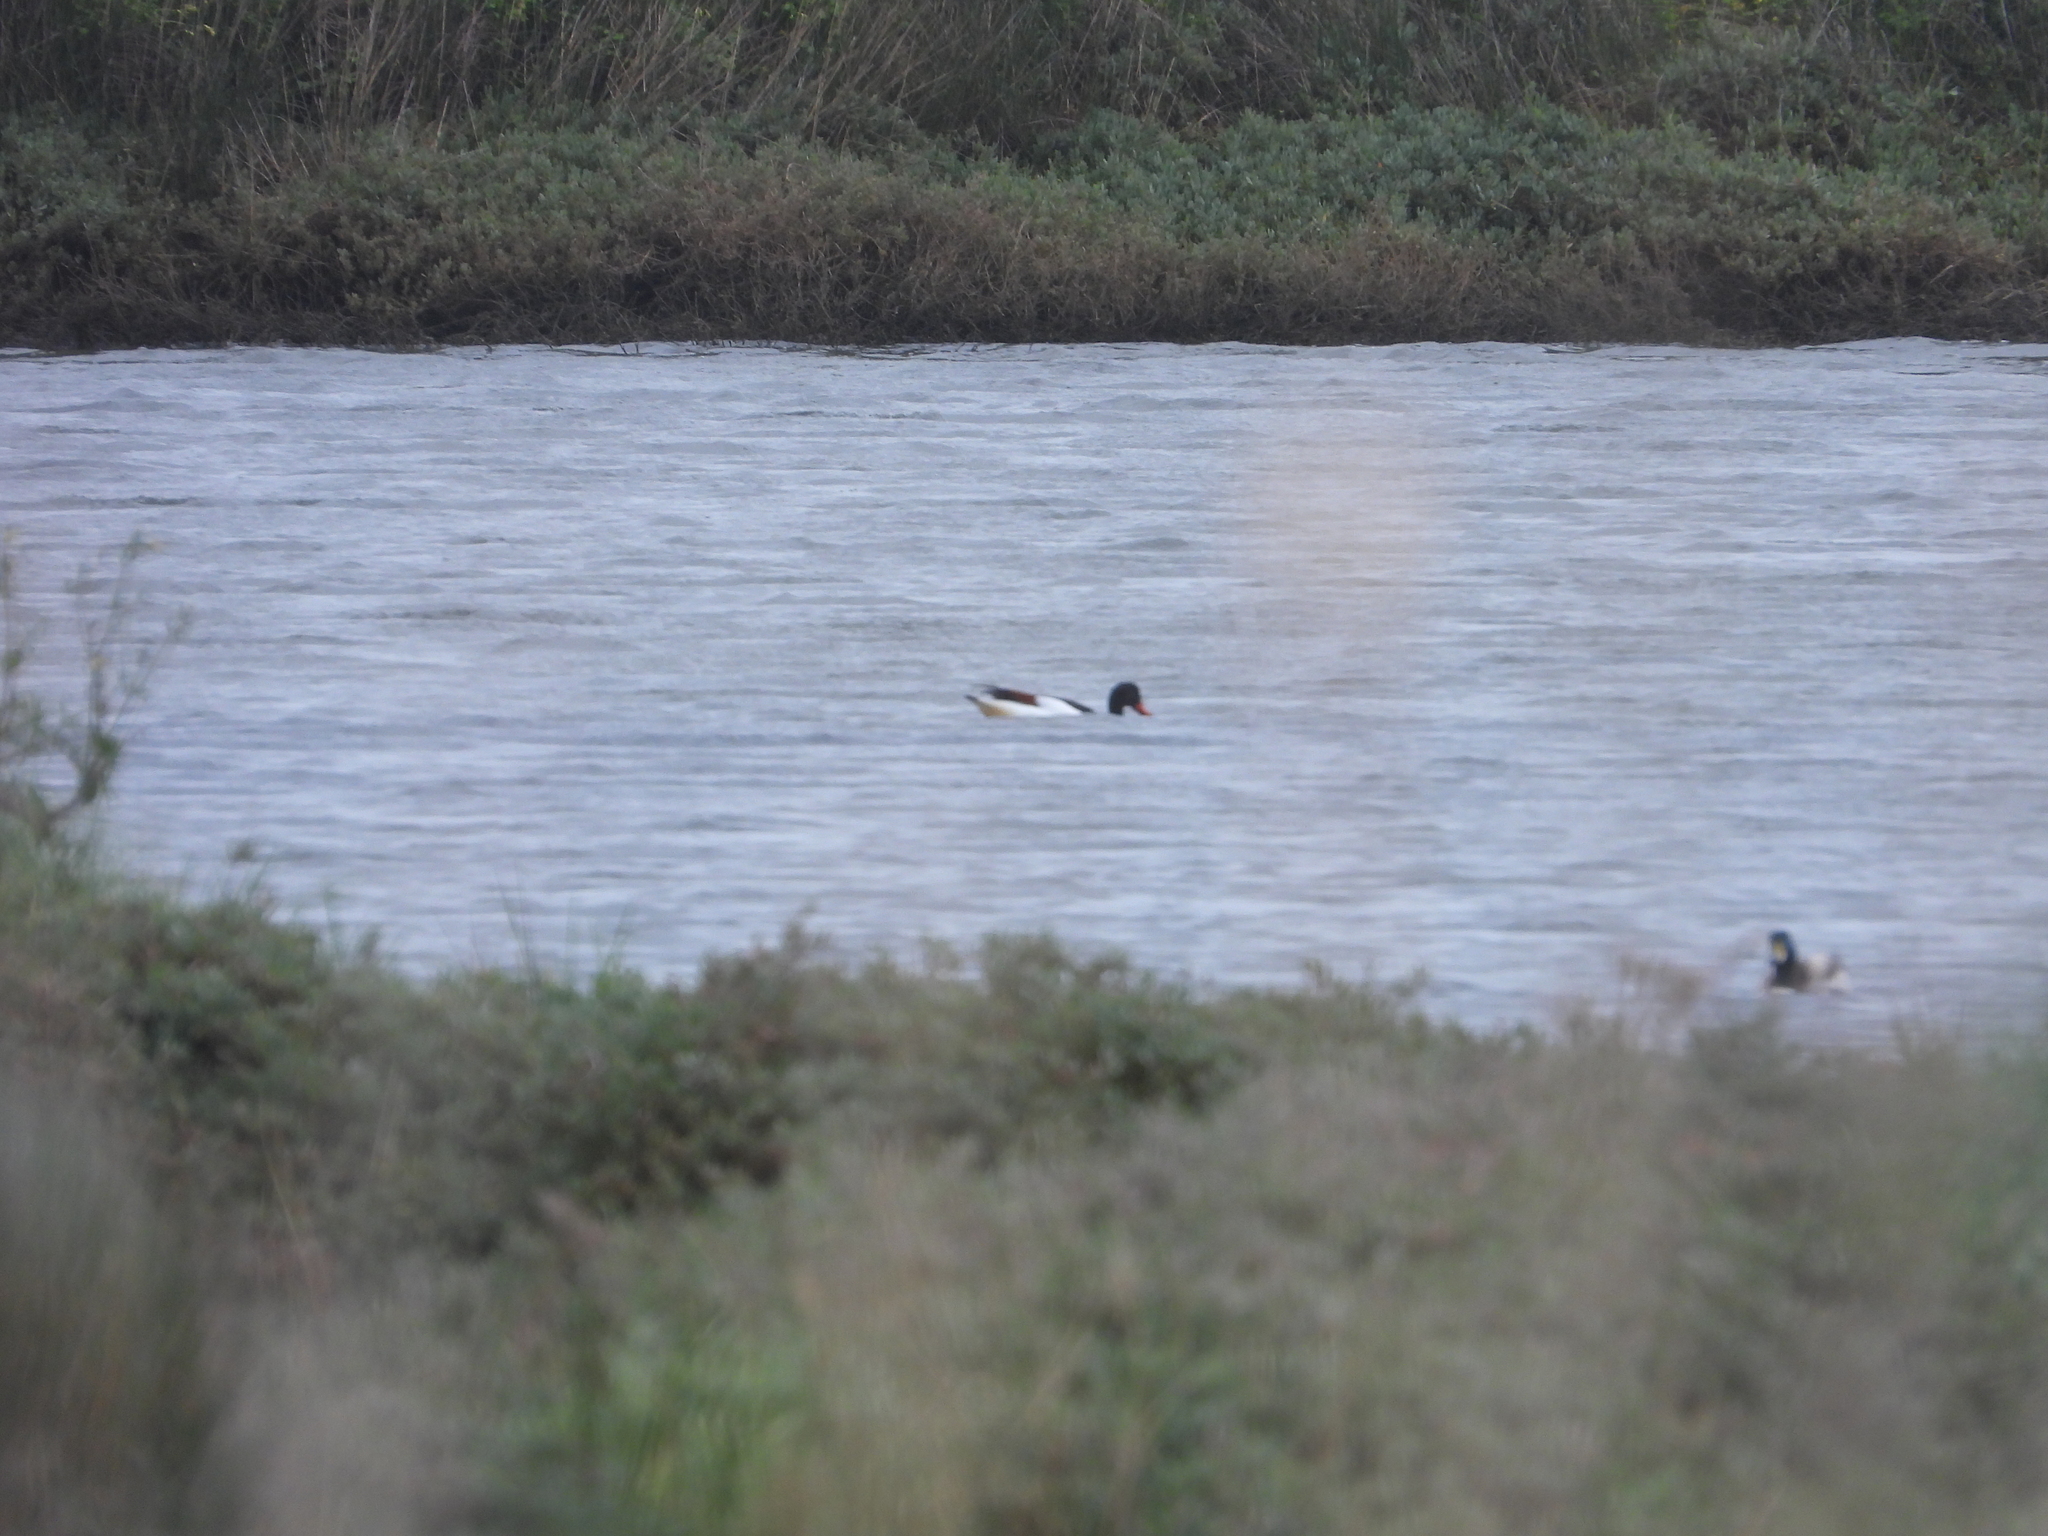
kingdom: Animalia
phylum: Chordata
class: Aves
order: Anseriformes
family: Anatidae
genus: Tadorna
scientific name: Tadorna tadorna
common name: Common shelduck
